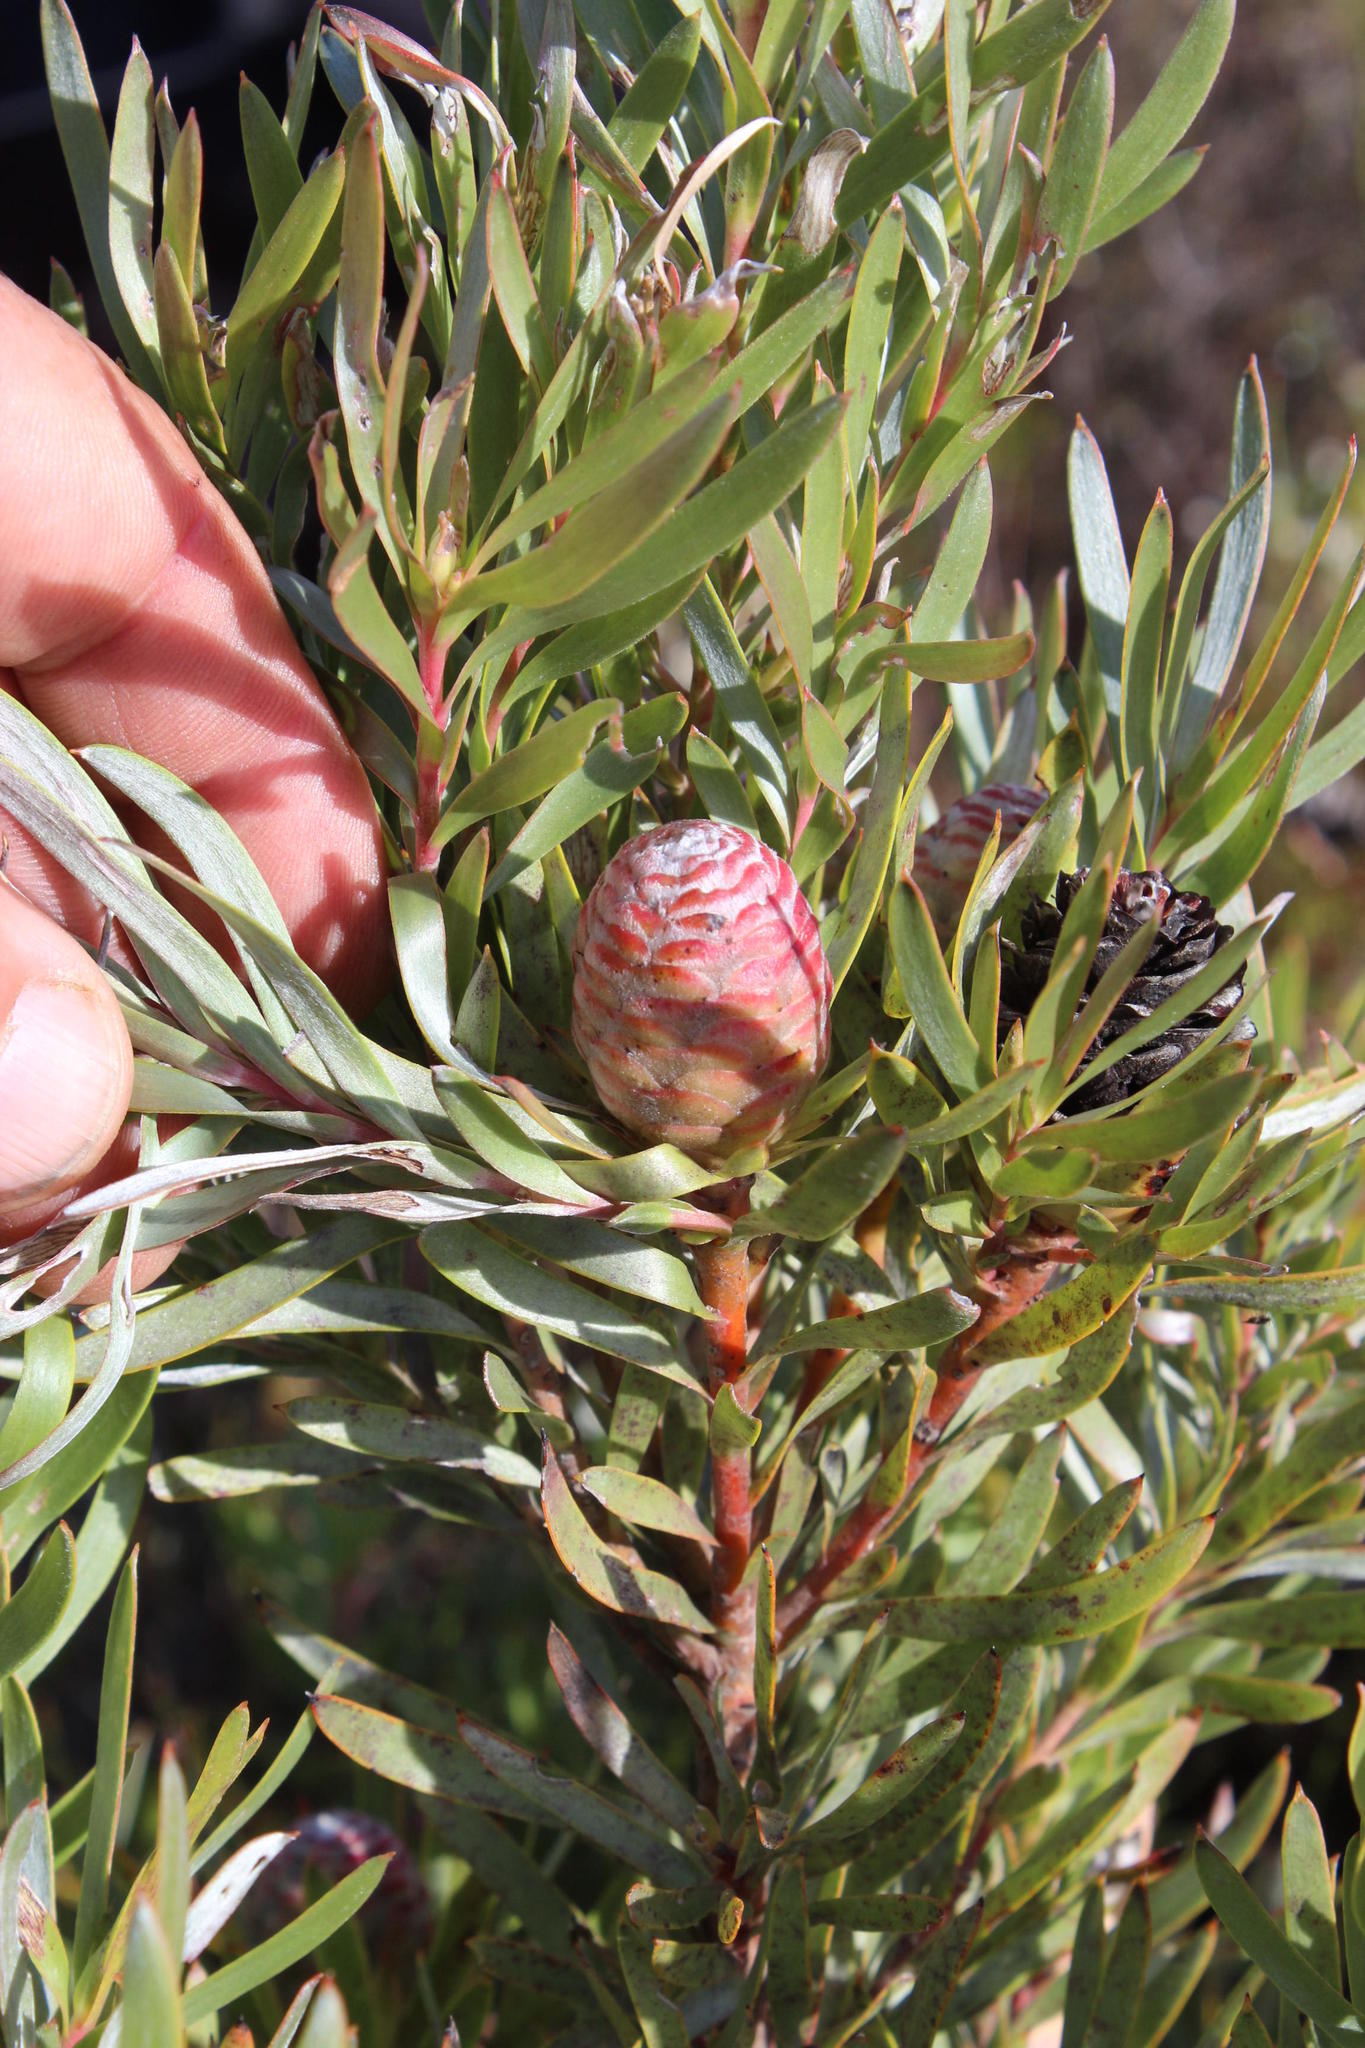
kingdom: Plantae
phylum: Tracheophyta
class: Magnoliopsida
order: Proteales
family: Proteaceae
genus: Leucadendron
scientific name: Leucadendron xanthoconus
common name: Sickle-leaf conebush
